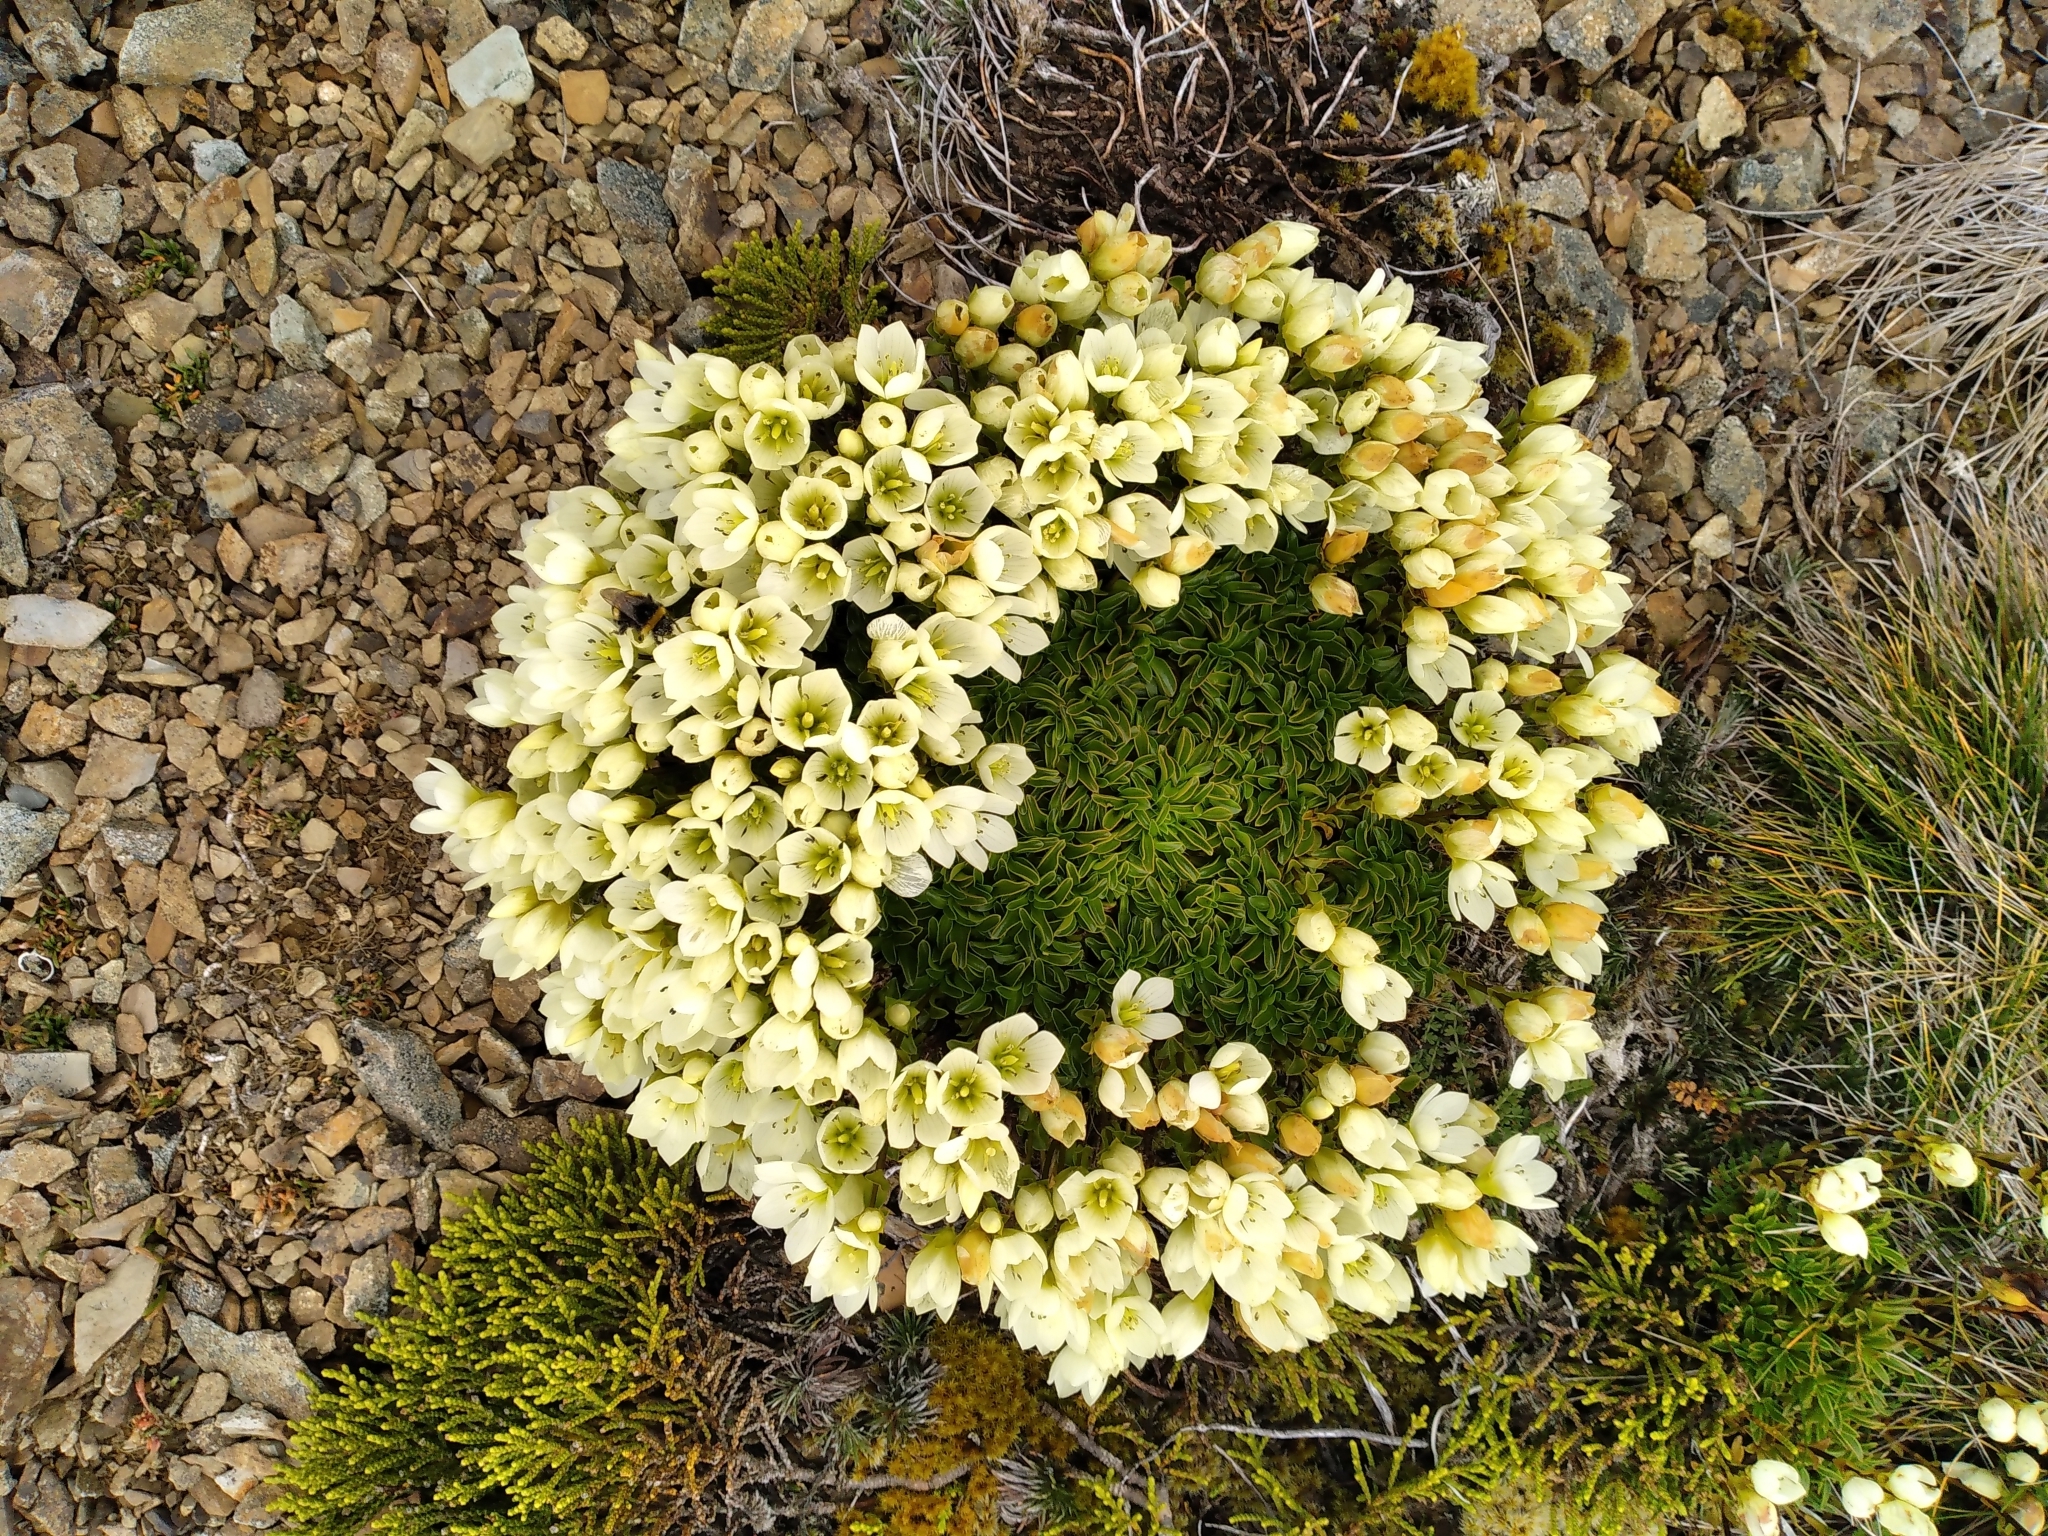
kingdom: Plantae
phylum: Tracheophyta
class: Magnoliopsida
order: Gentianales
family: Gentianaceae
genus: Gentianella
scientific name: Gentianella decumbens
